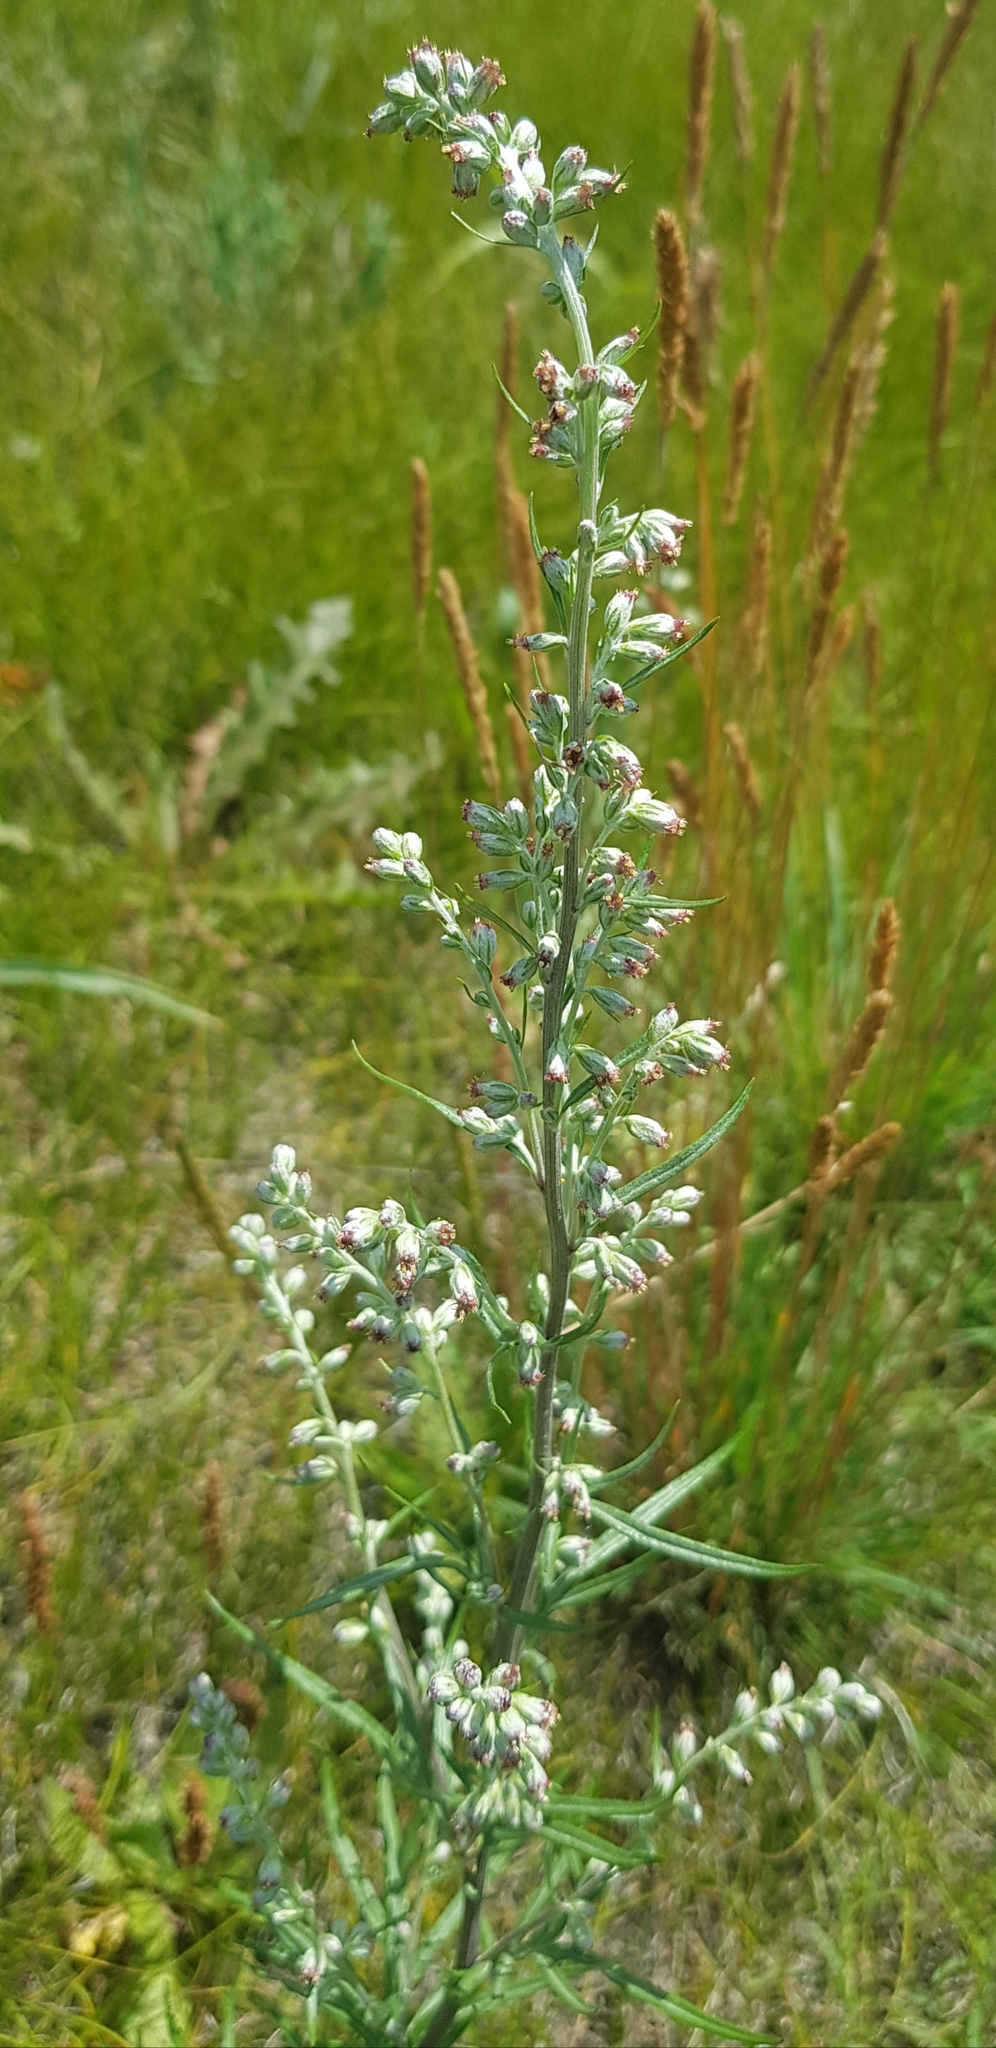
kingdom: Plantae
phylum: Tracheophyta
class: Magnoliopsida
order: Asterales
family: Asteraceae
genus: Artemisia
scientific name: Artemisia vulgaris
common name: Mugwort
